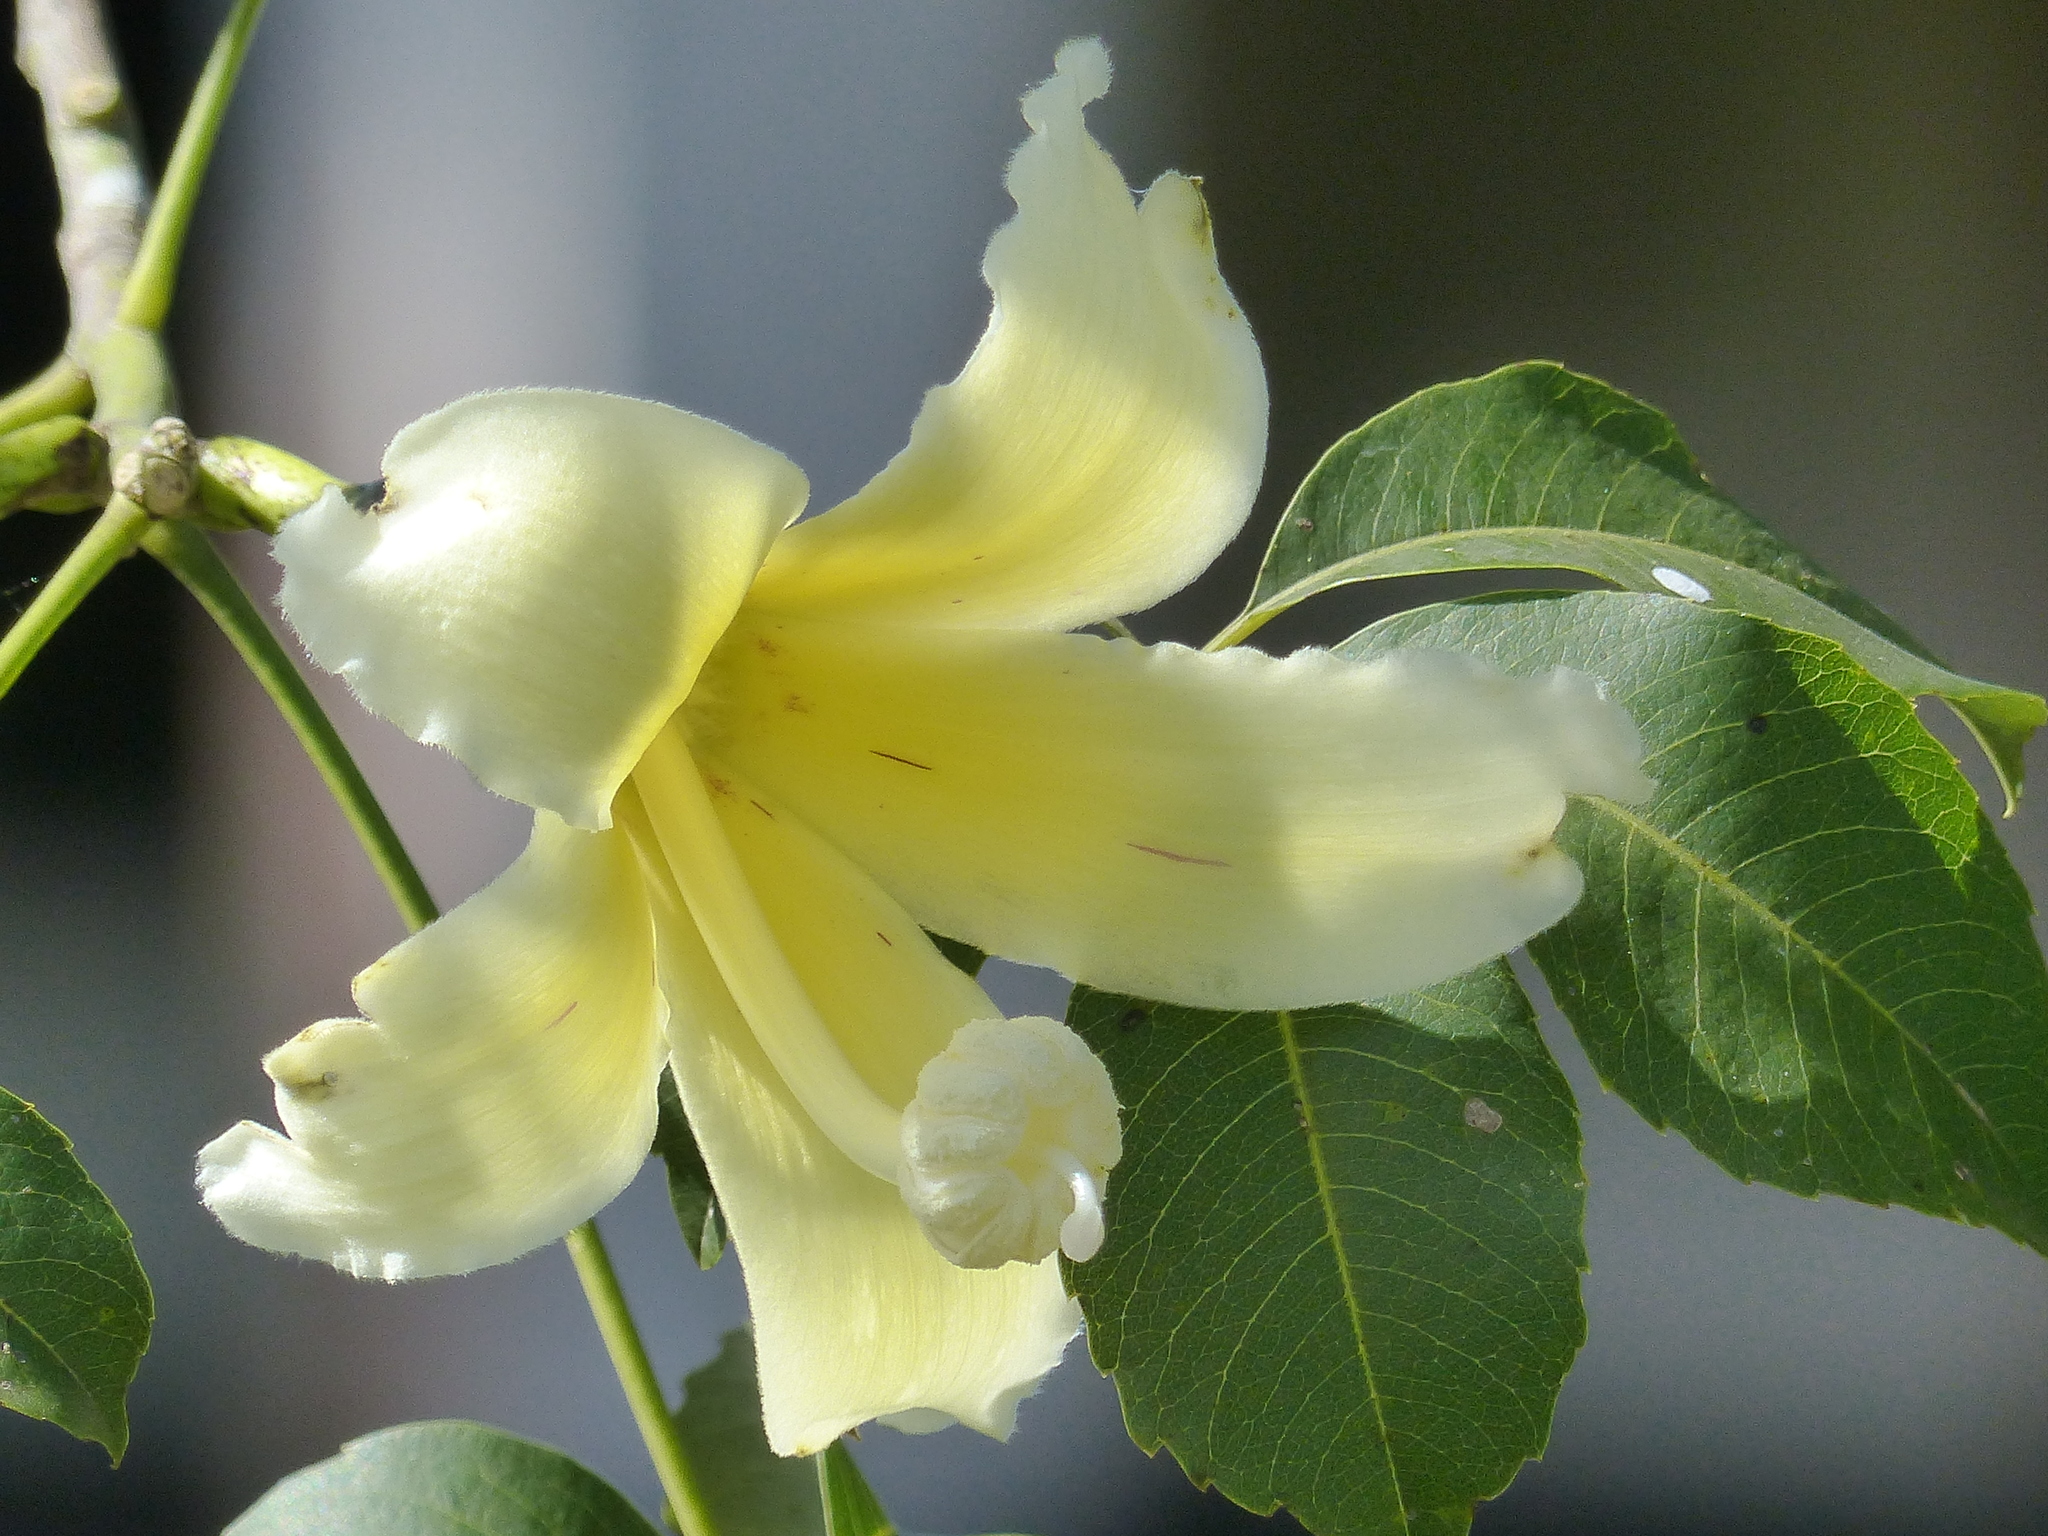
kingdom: Plantae
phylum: Tracheophyta
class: Magnoliopsida
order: Malvales
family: Malvaceae
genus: Ceiba
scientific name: Ceiba chodatii
